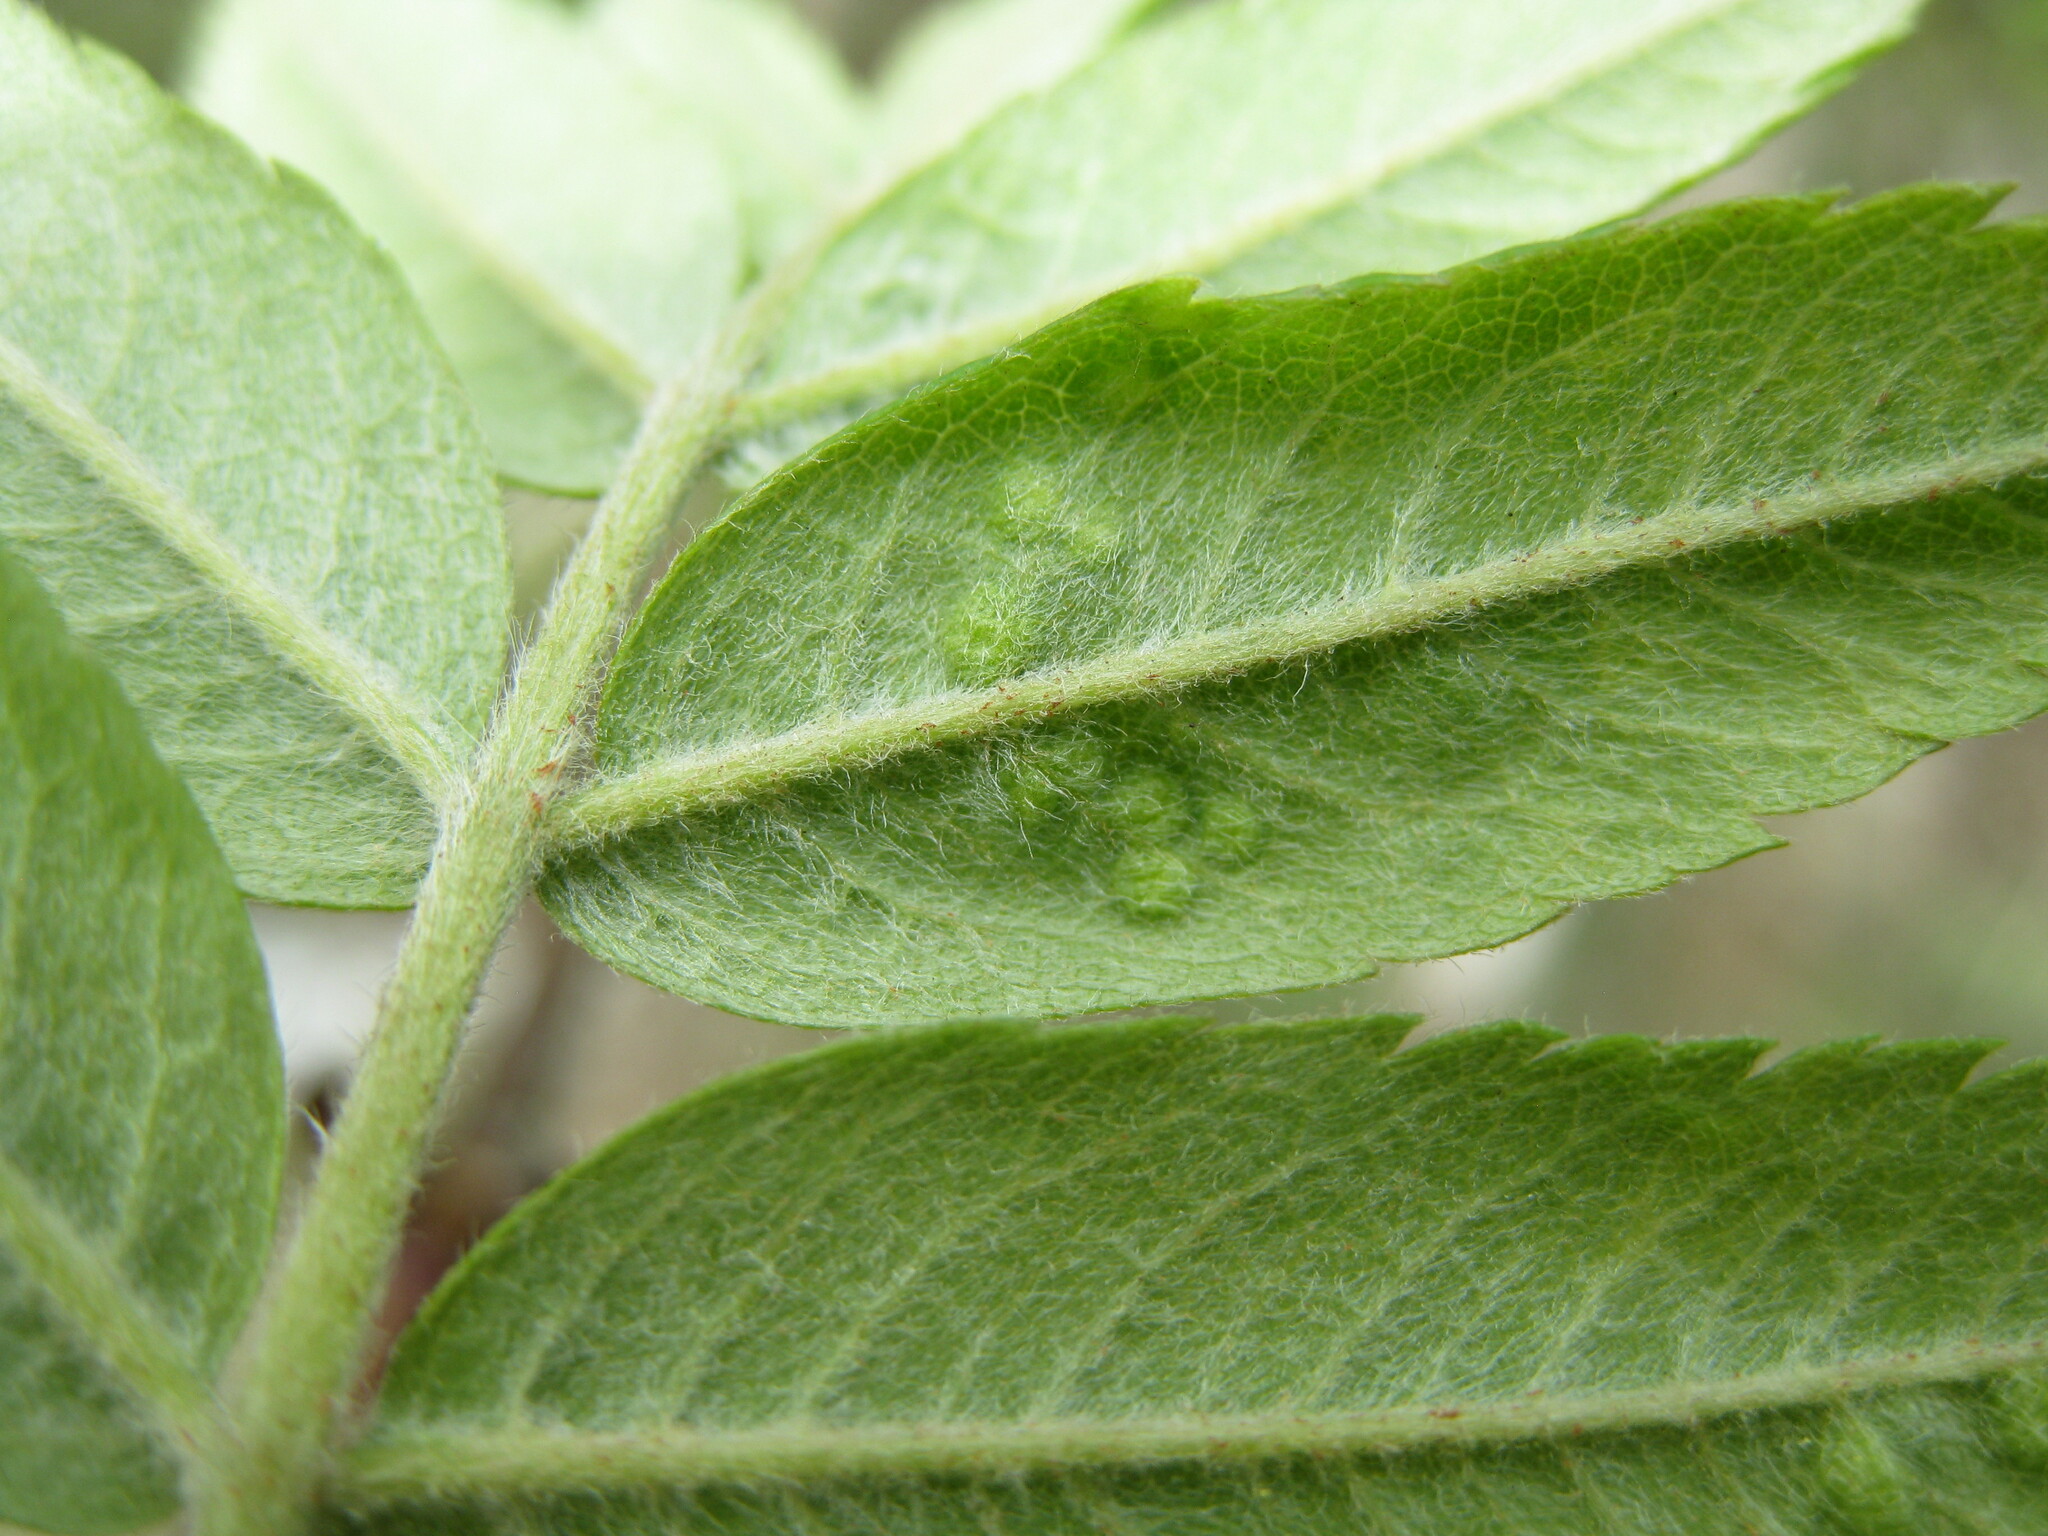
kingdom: Animalia
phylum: Arthropoda
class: Arachnida
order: Trombidiformes
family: Eriophyidae
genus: Eriophyes
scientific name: Eriophyes pyri
